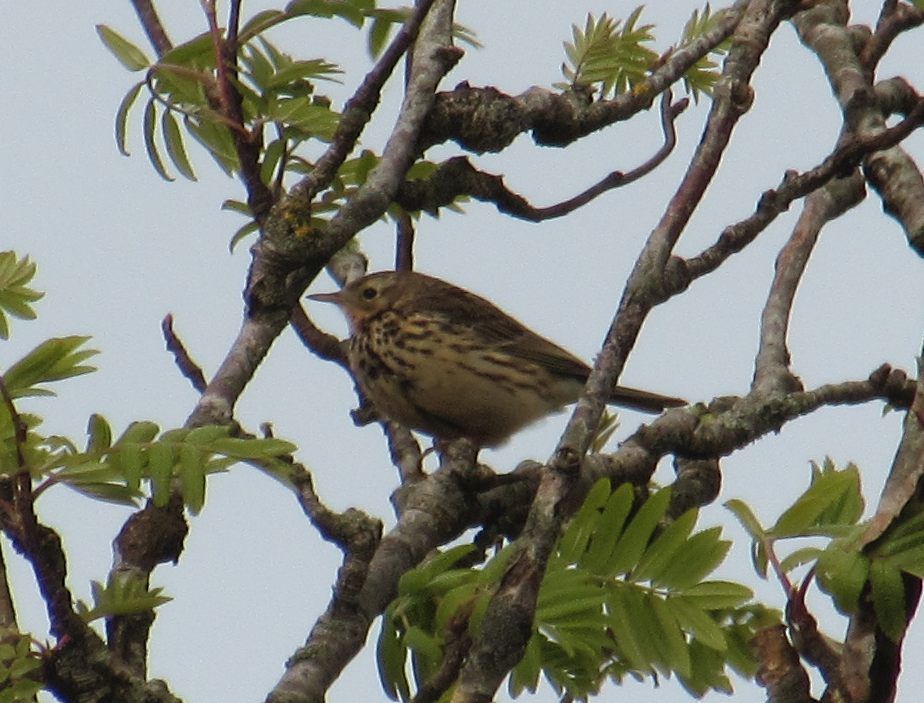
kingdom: Animalia
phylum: Chordata
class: Aves
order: Passeriformes
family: Motacillidae
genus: Anthus
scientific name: Anthus pratensis
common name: Meadow pipit
